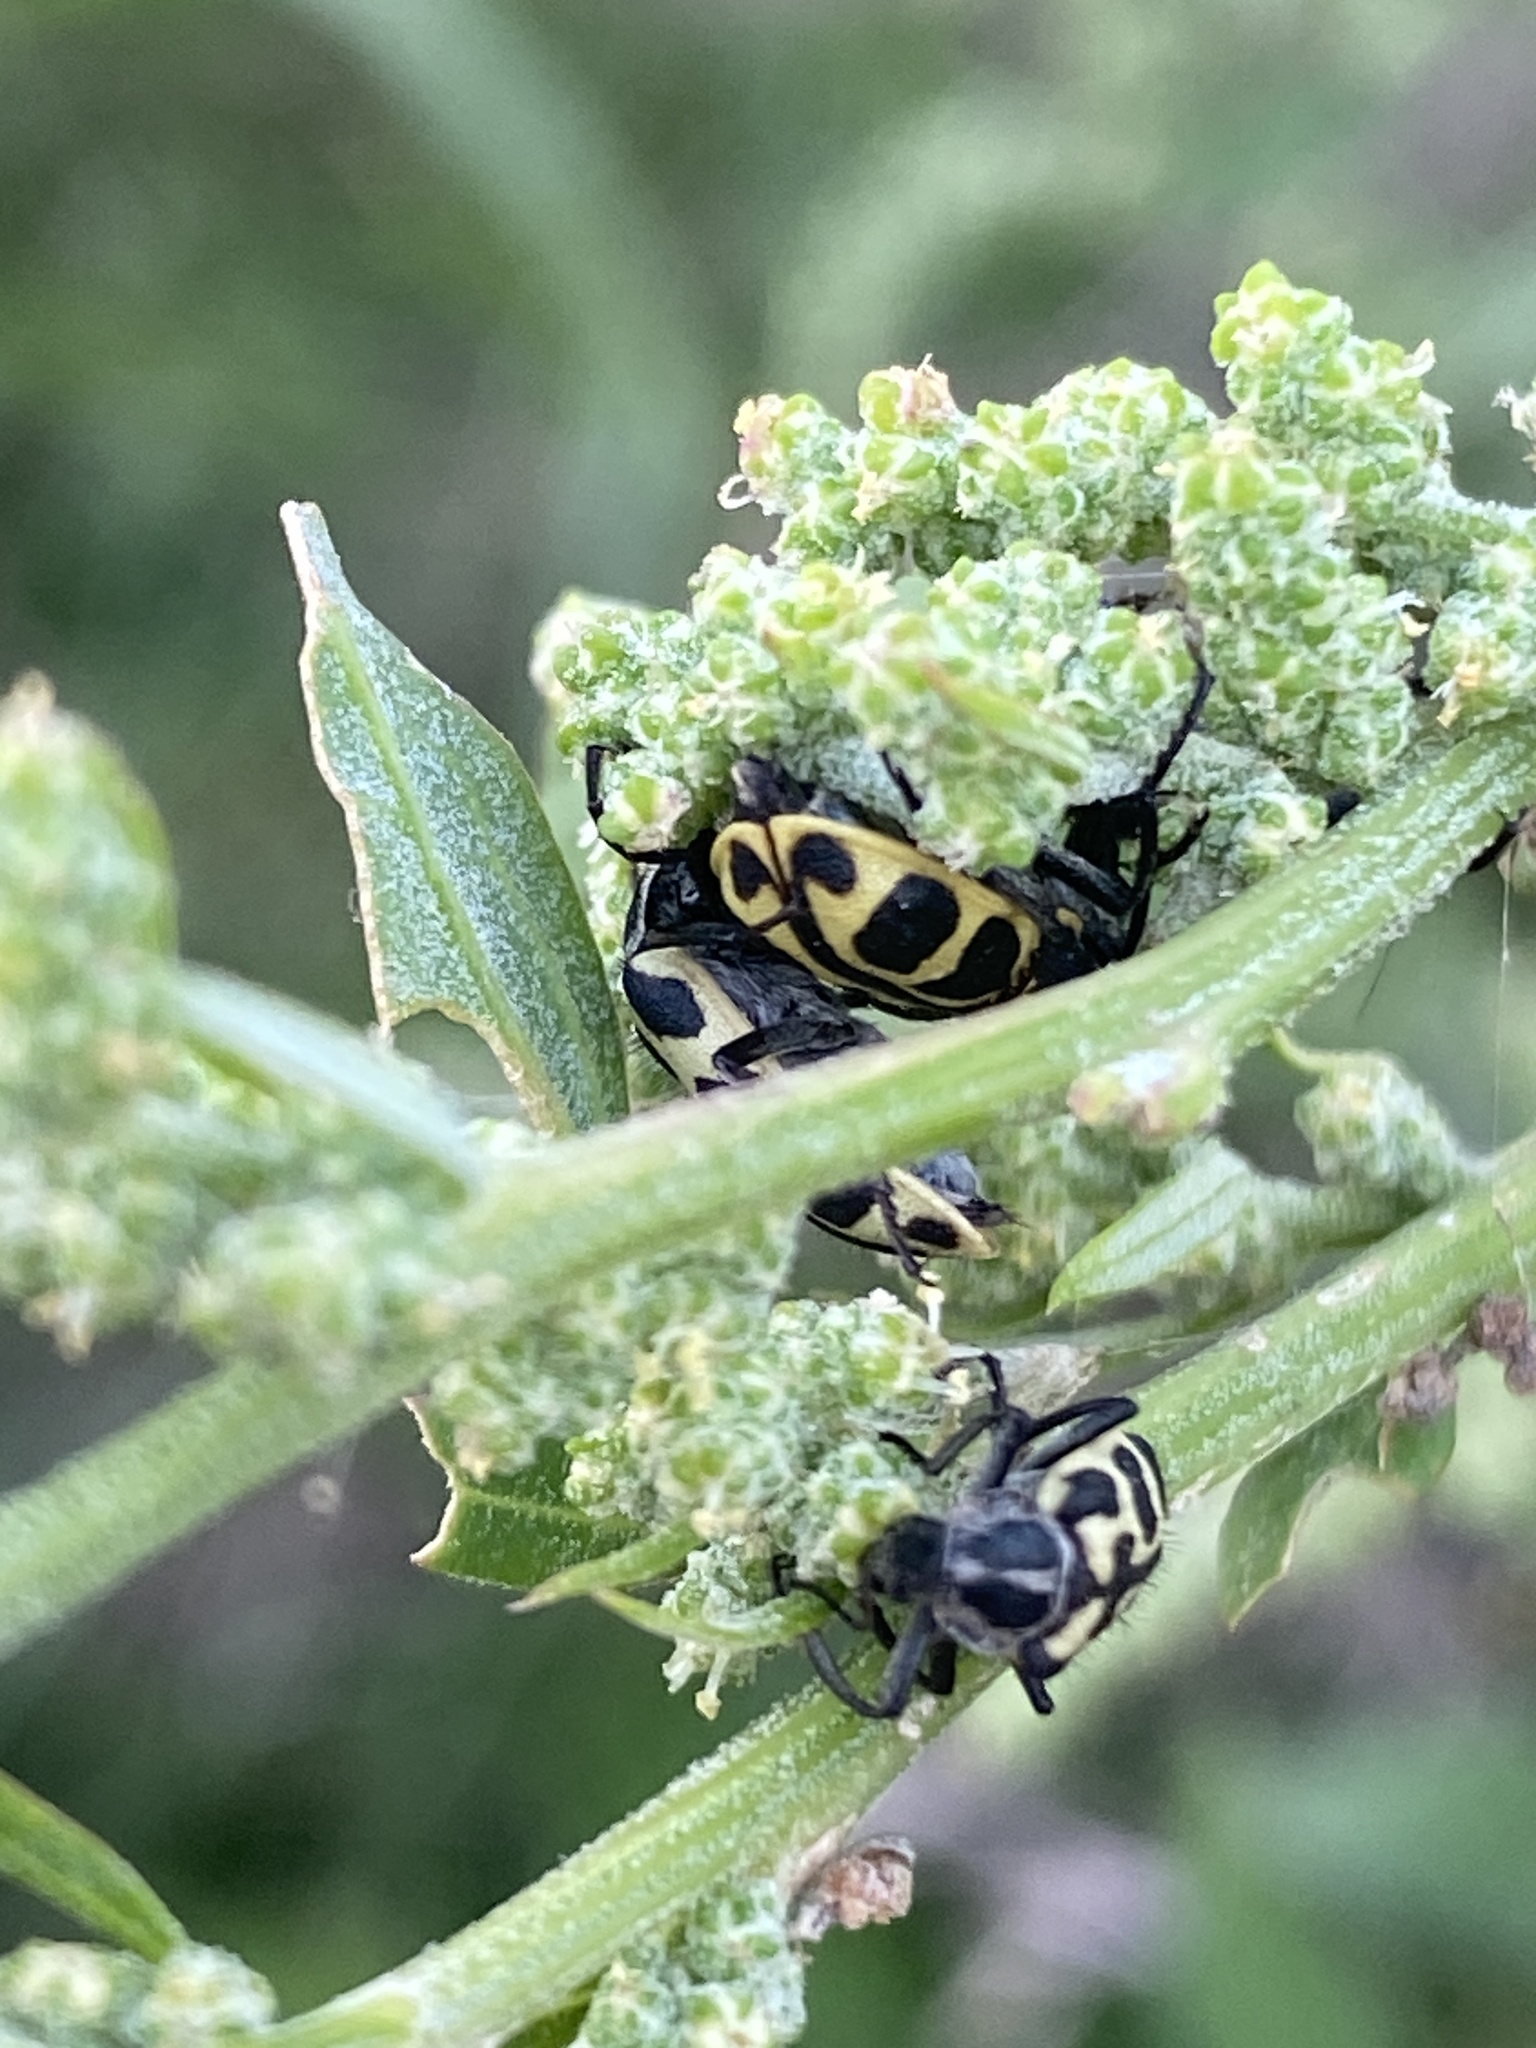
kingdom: Animalia
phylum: Arthropoda
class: Insecta
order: Coleoptera
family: Melyridae
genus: Astylus
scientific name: Astylus atromaculatus
